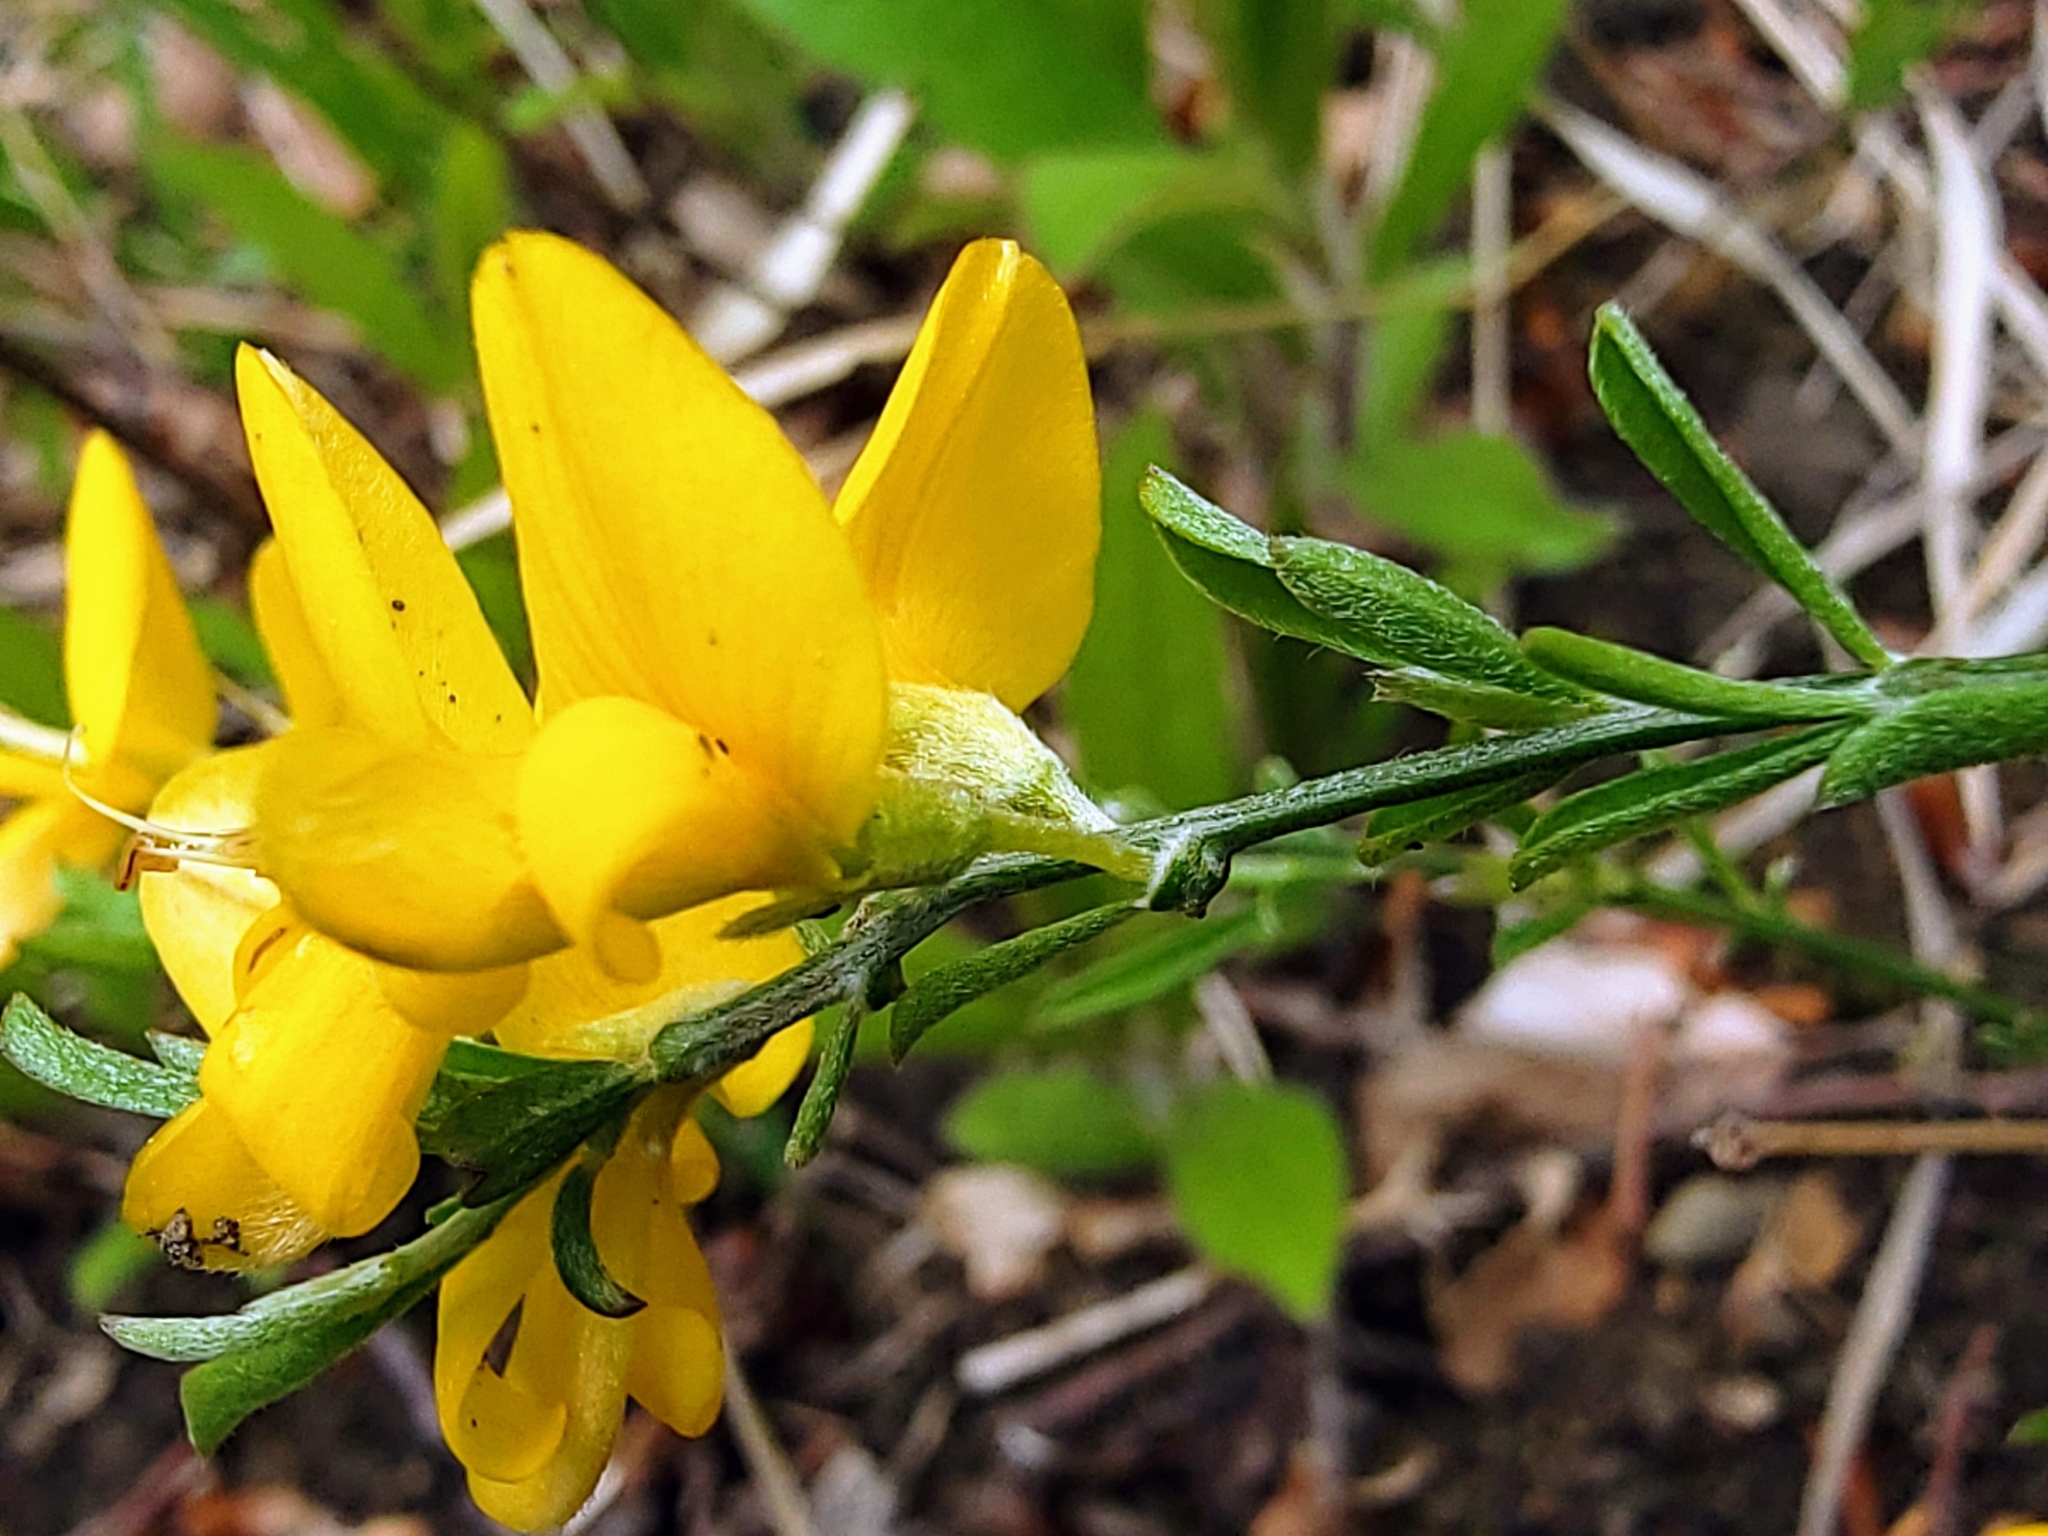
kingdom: Plantae
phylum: Tracheophyta
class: Magnoliopsida
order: Fabales
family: Fabaceae
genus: Genista
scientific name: Genista pilosa
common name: Hairy greenweed
